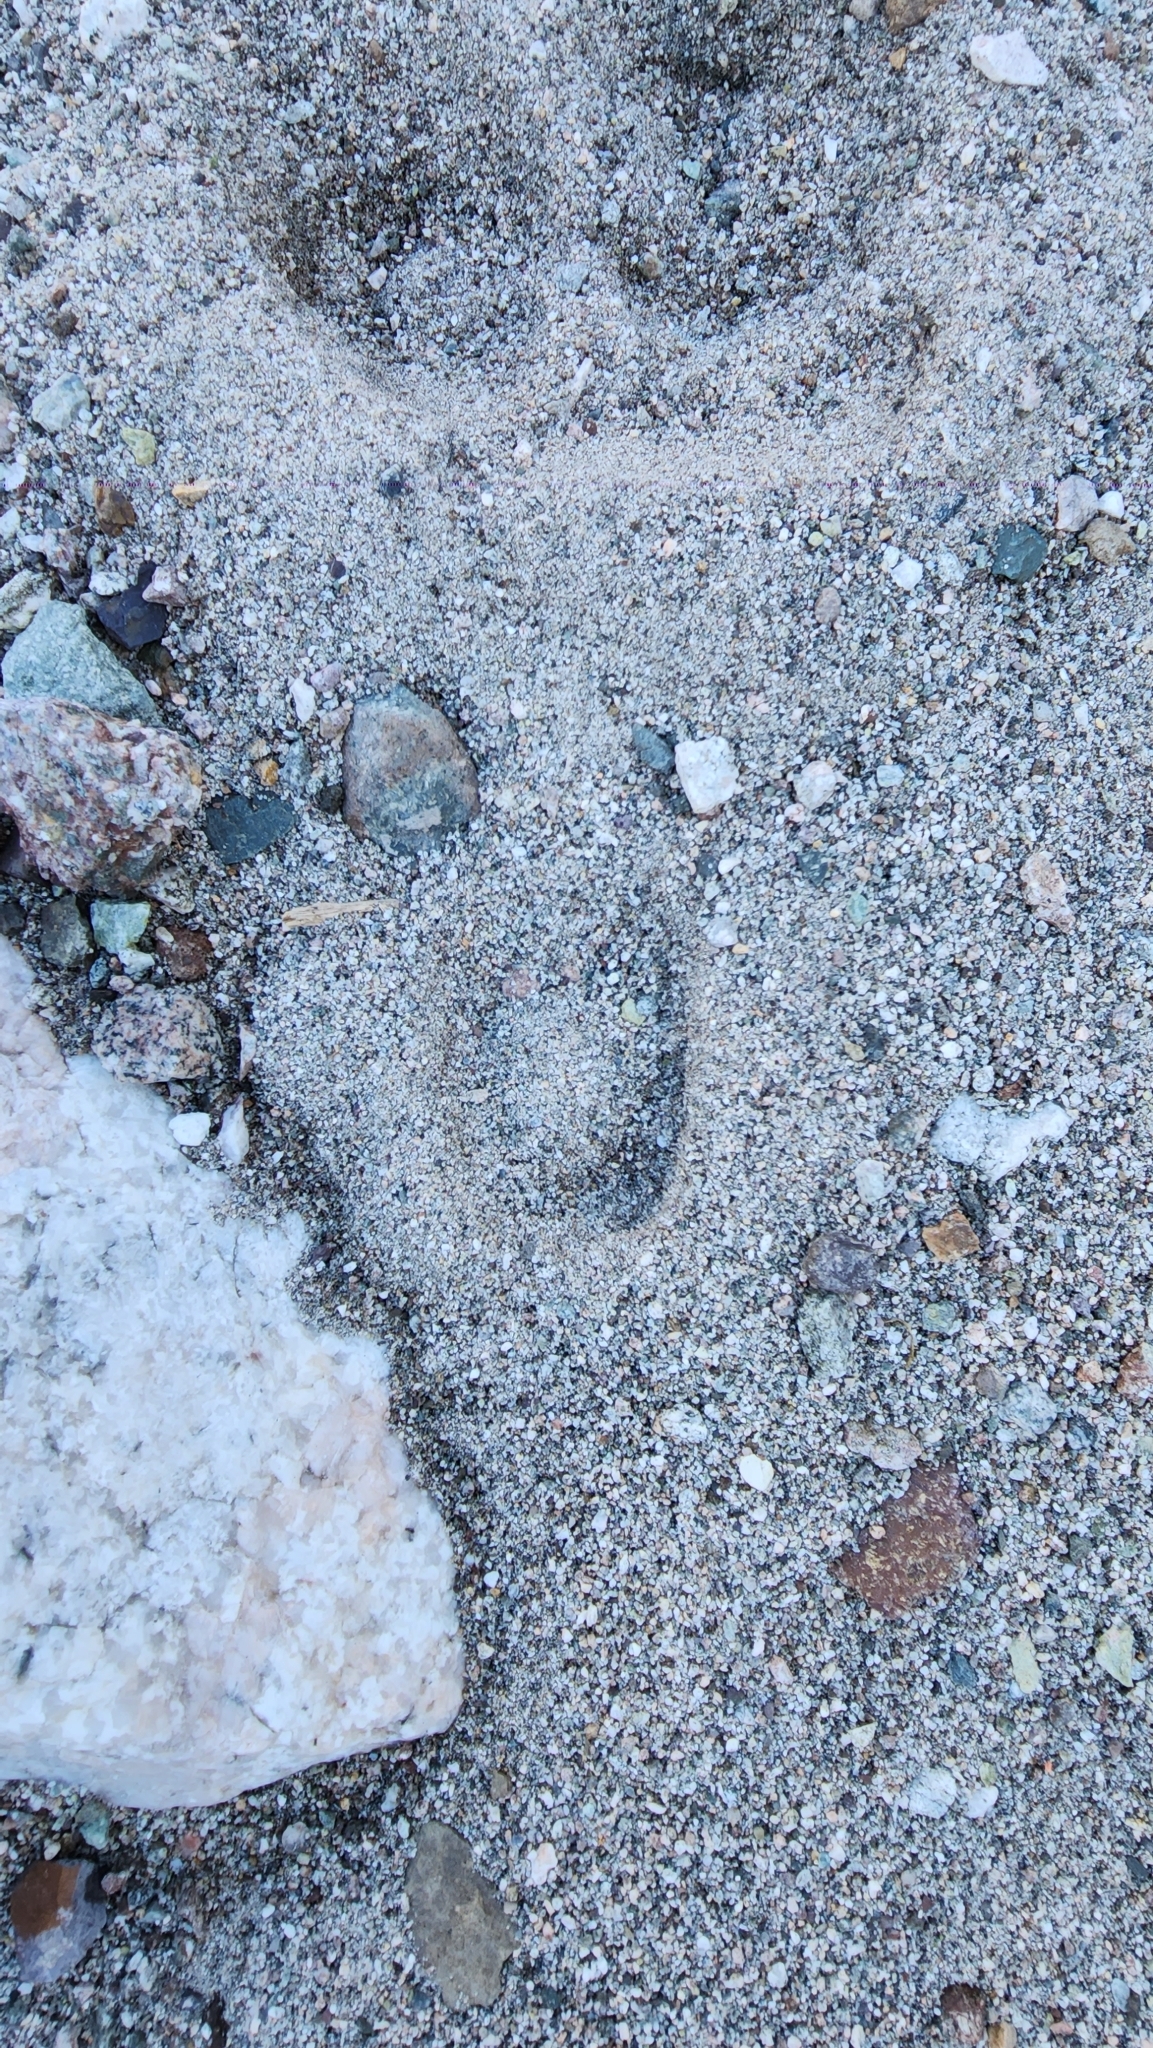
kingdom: Animalia
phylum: Chordata
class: Mammalia
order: Artiodactyla
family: Bovidae
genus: Ovis
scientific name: Ovis canadensis
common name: Bighorn sheep
